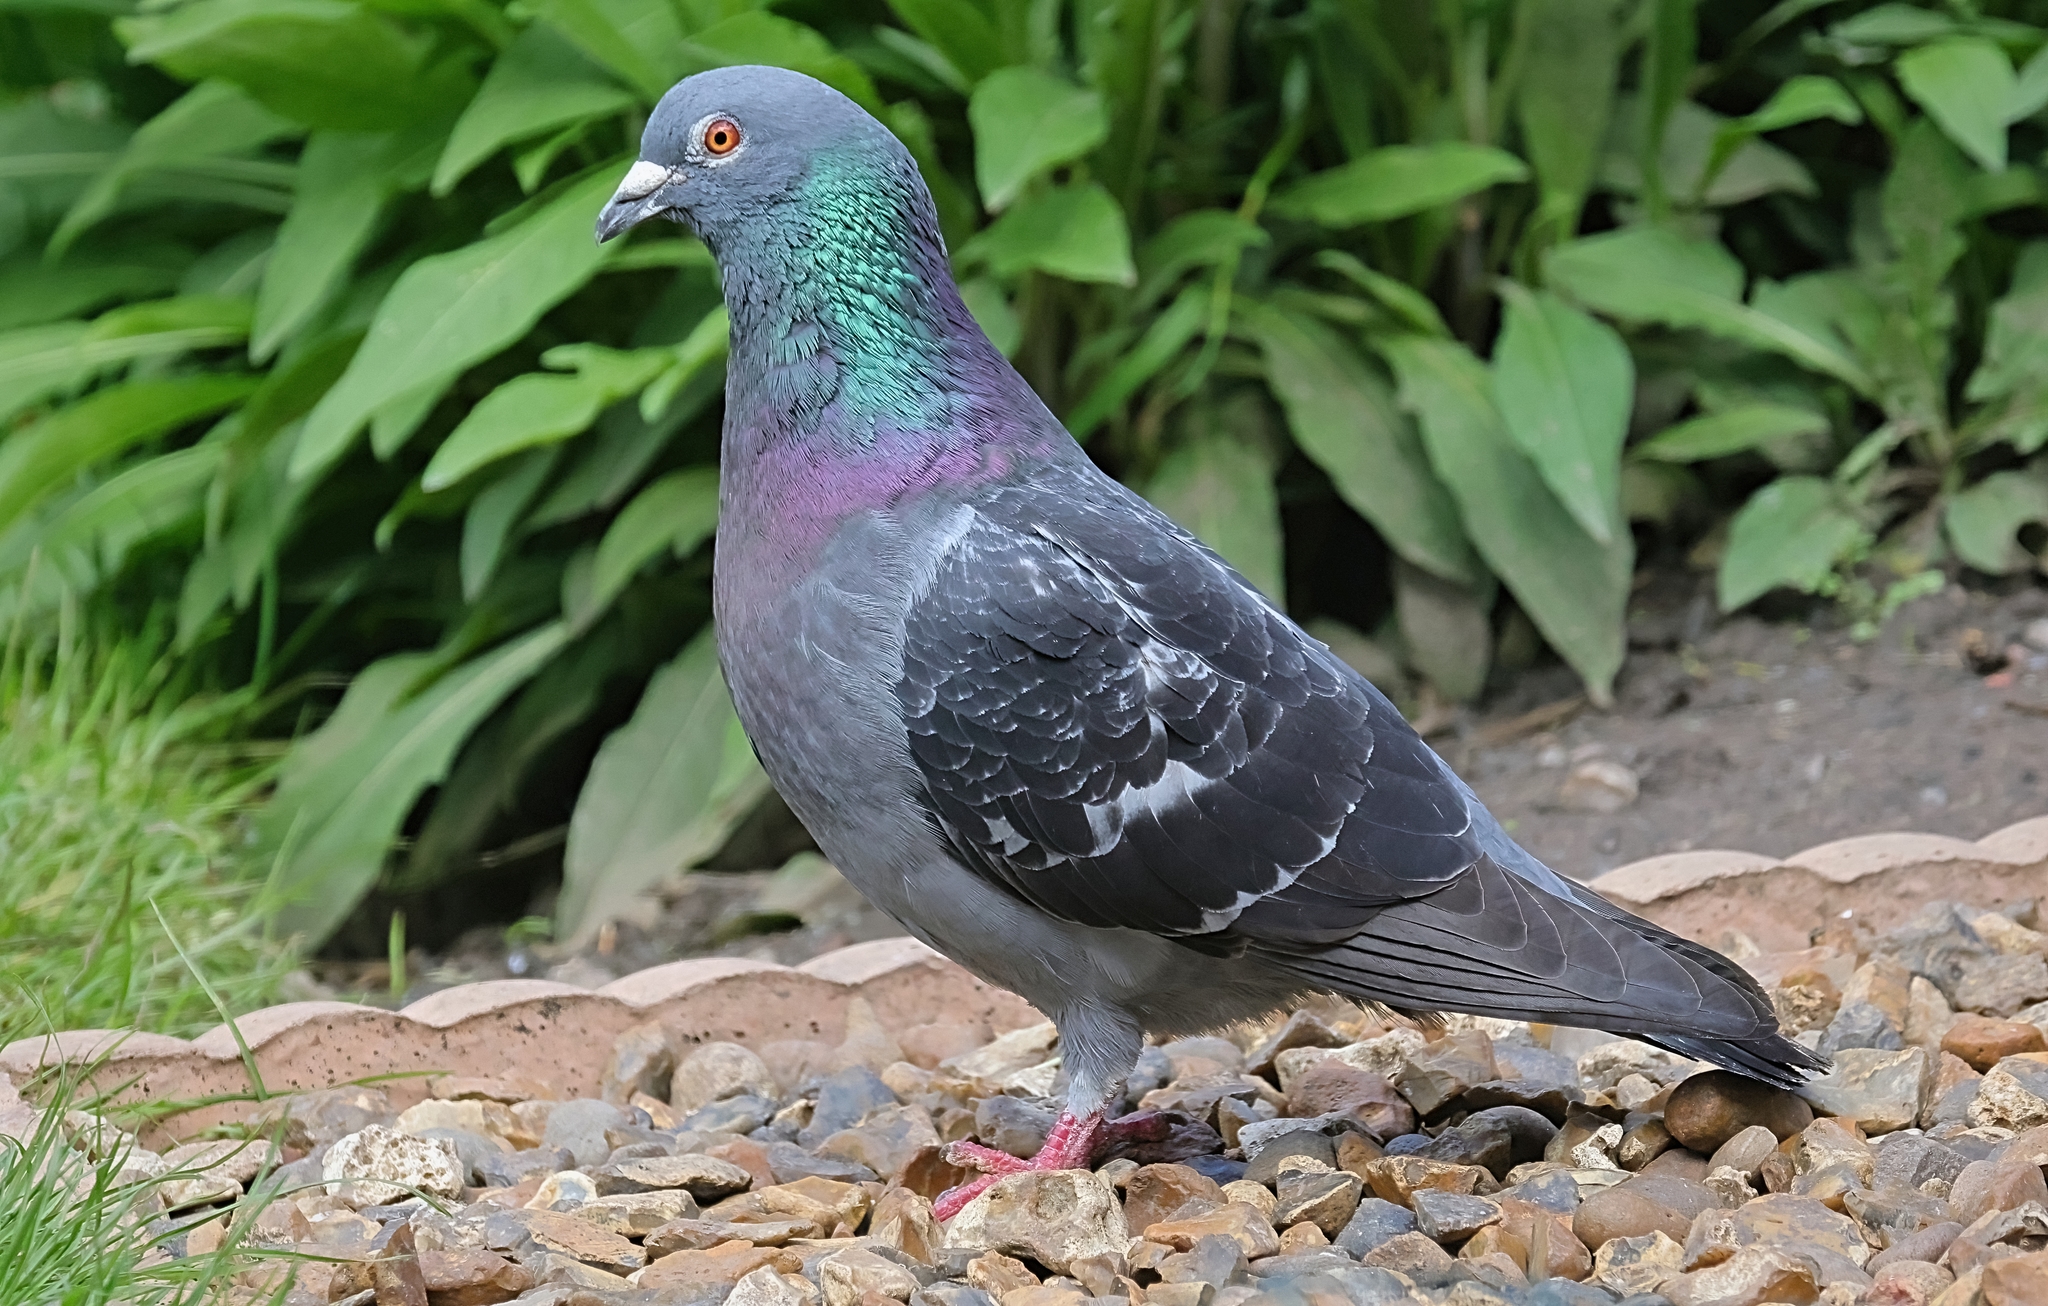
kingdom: Animalia
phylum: Chordata
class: Aves
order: Columbiformes
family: Columbidae
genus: Columba
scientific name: Columba livia
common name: Rock pigeon
